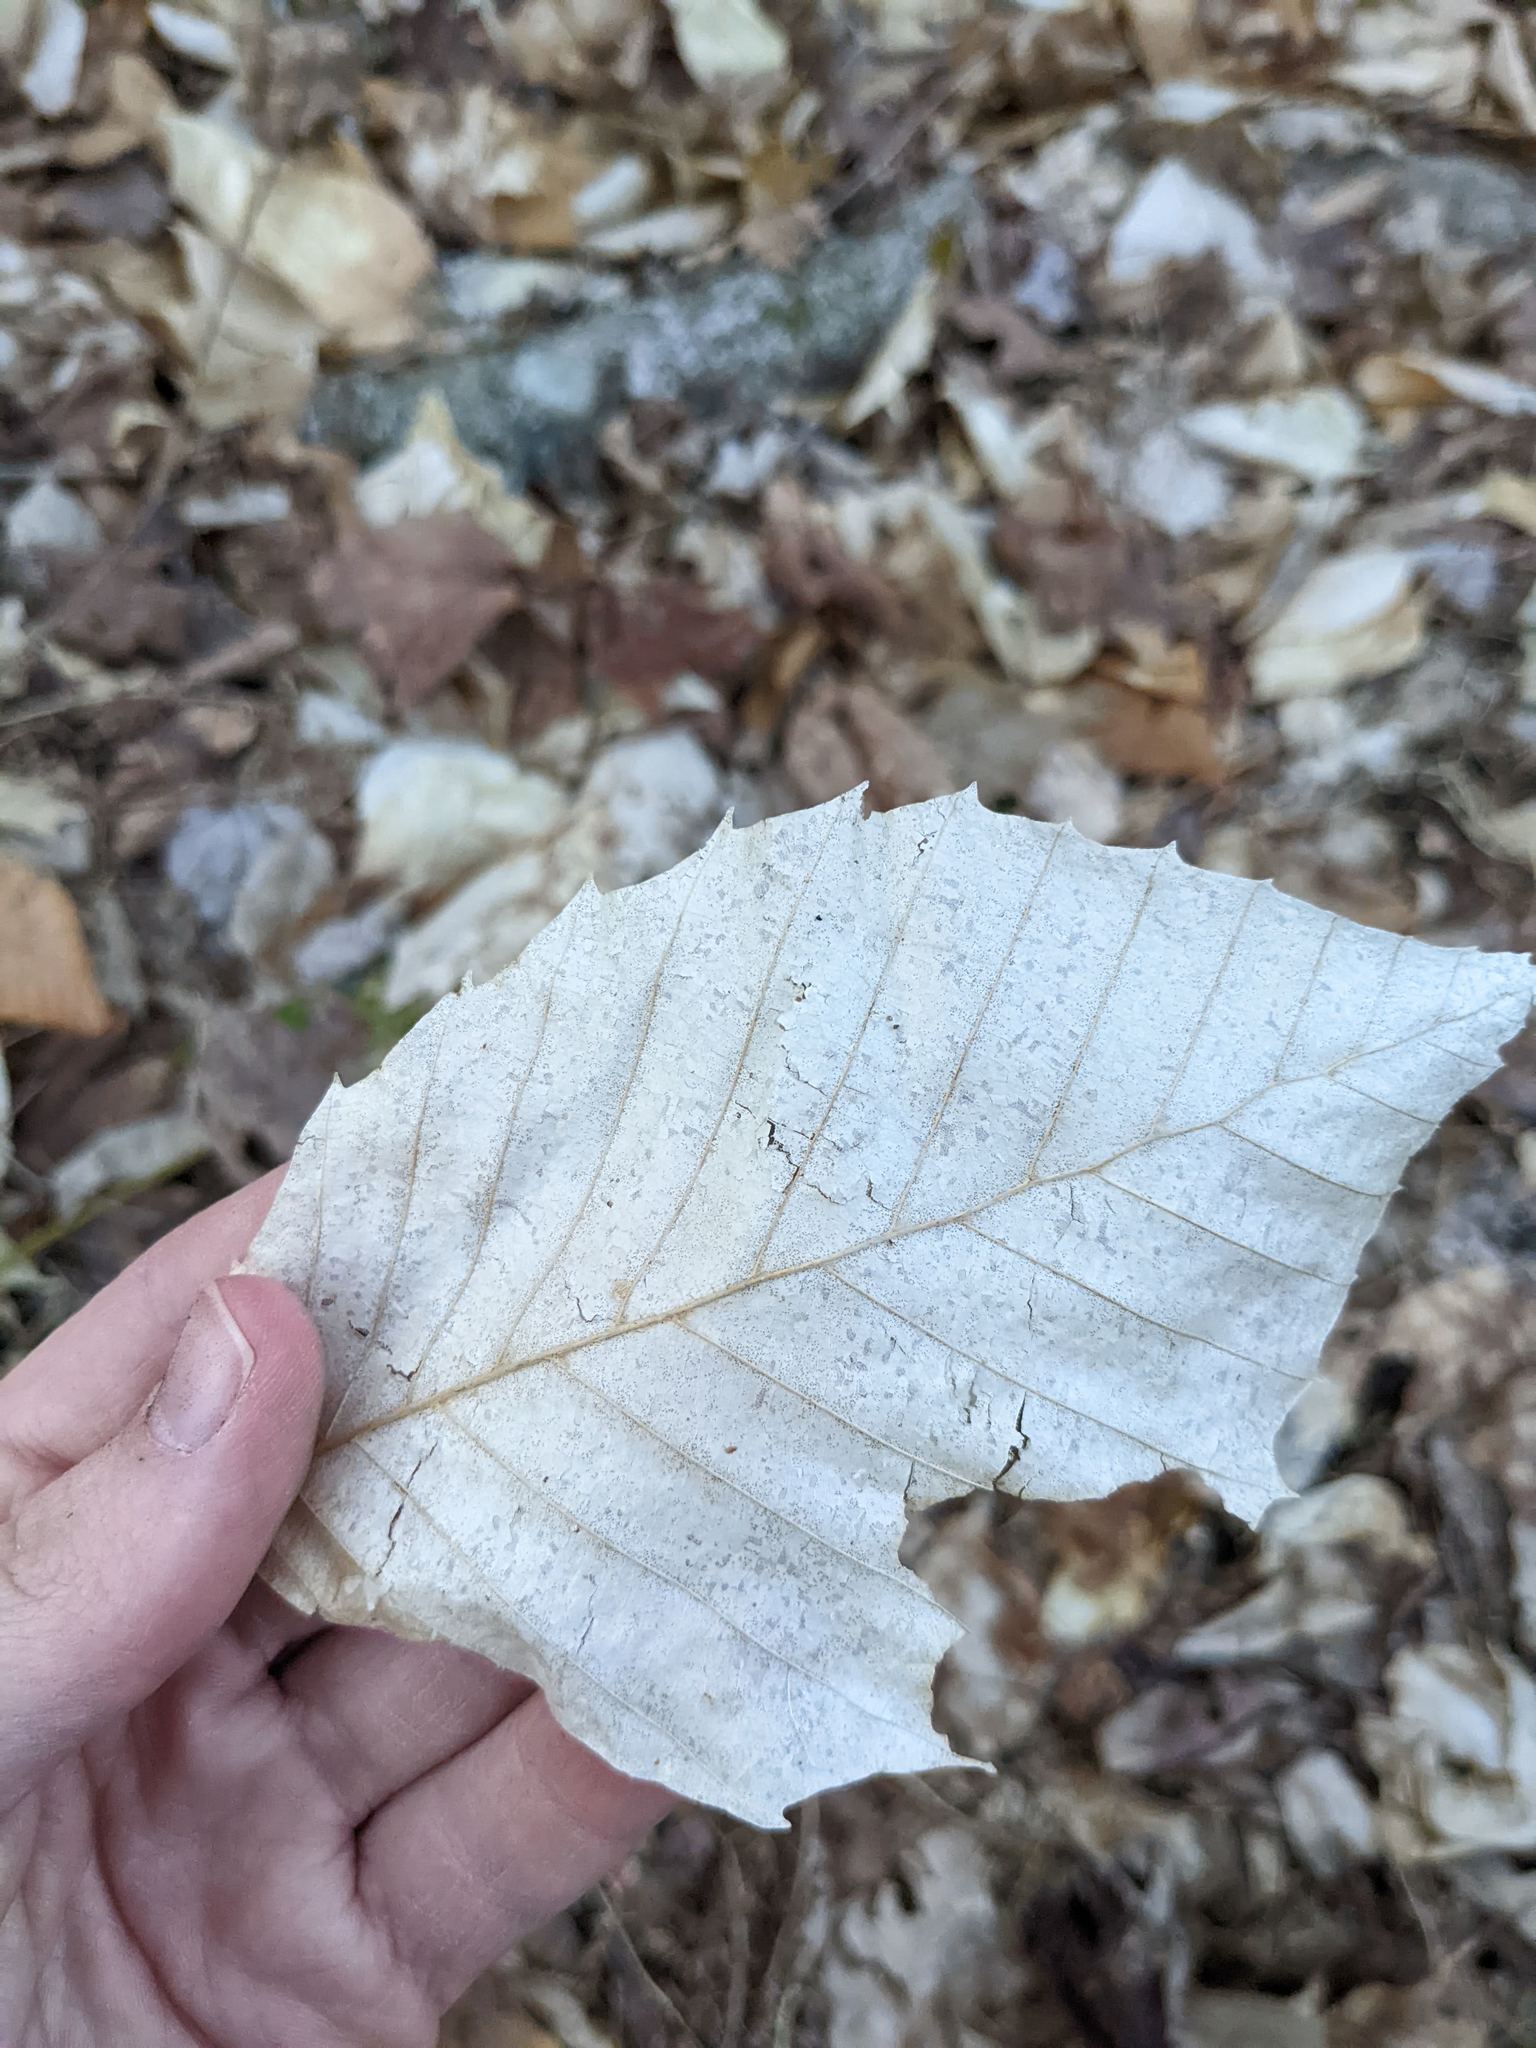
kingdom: Plantae
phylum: Tracheophyta
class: Magnoliopsida
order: Fagales
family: Fagaceae
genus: Fagus
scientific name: Fagus grandifolia
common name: American beech
